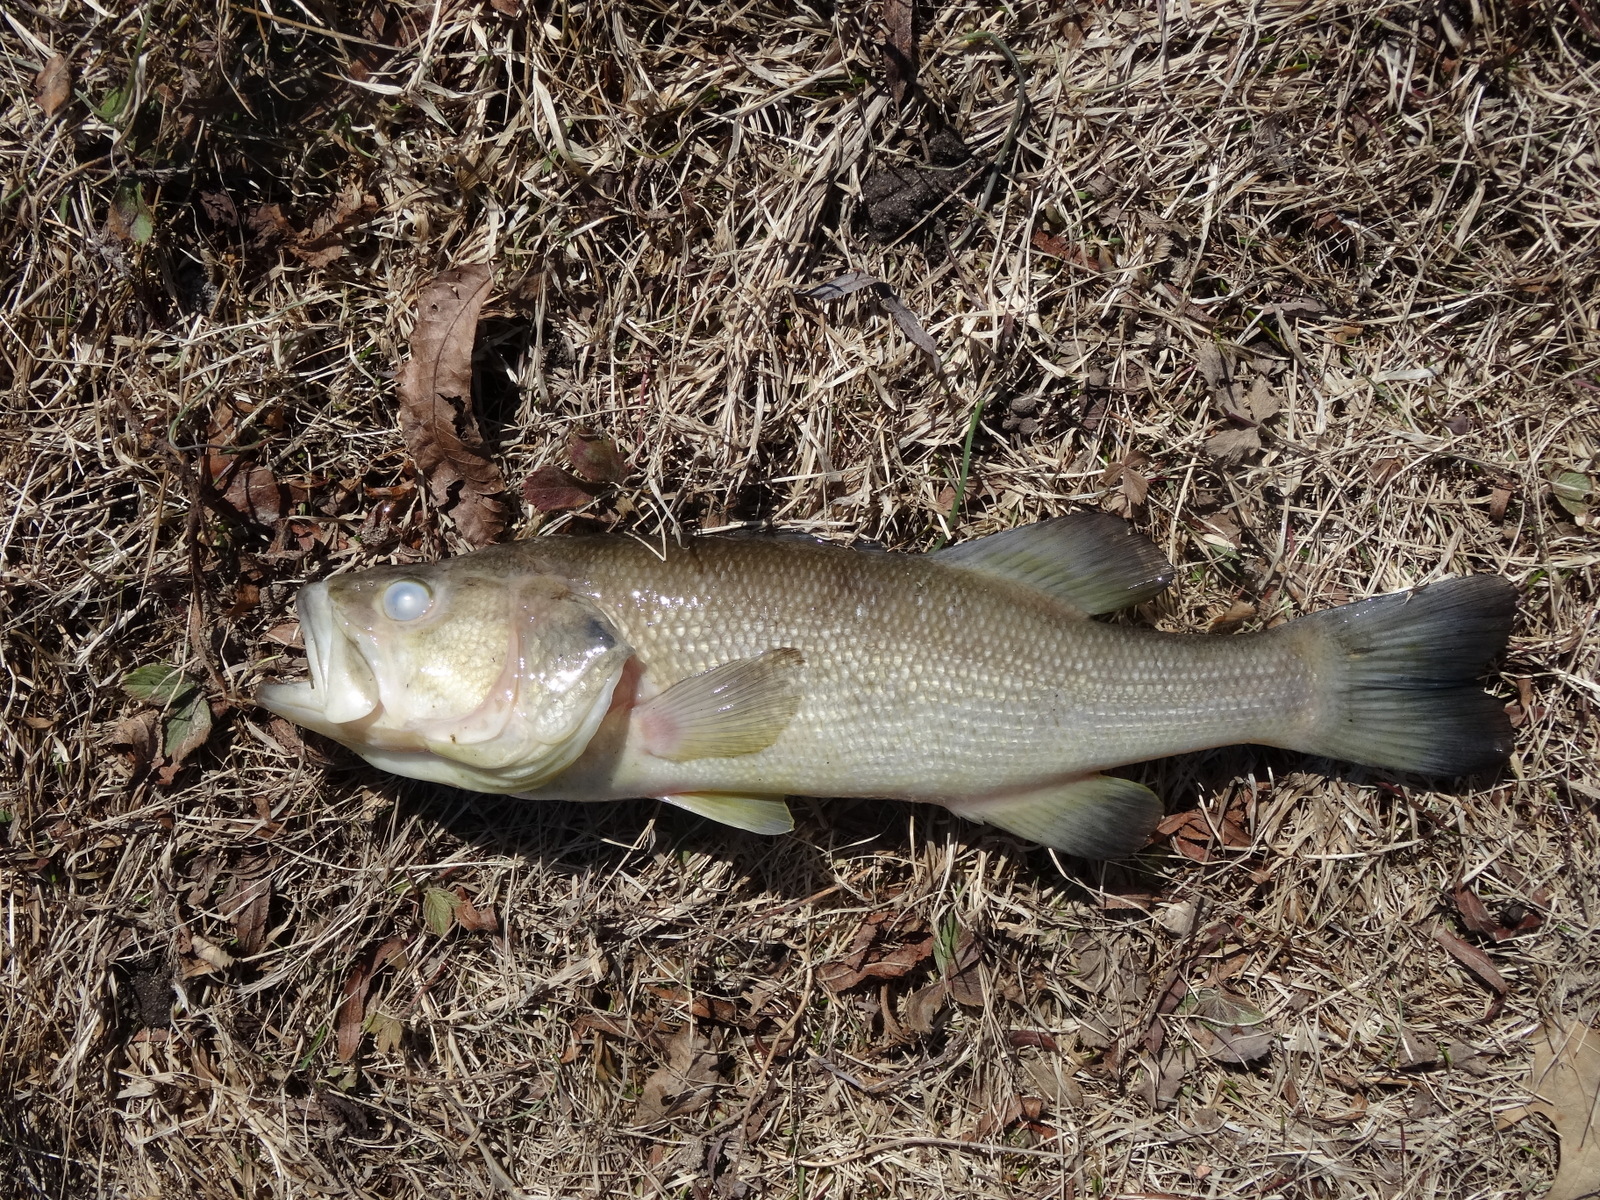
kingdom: Animalia
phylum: Chordata
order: Perciformes
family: Centrarchidae
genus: Micropterus
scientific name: Micropterus
